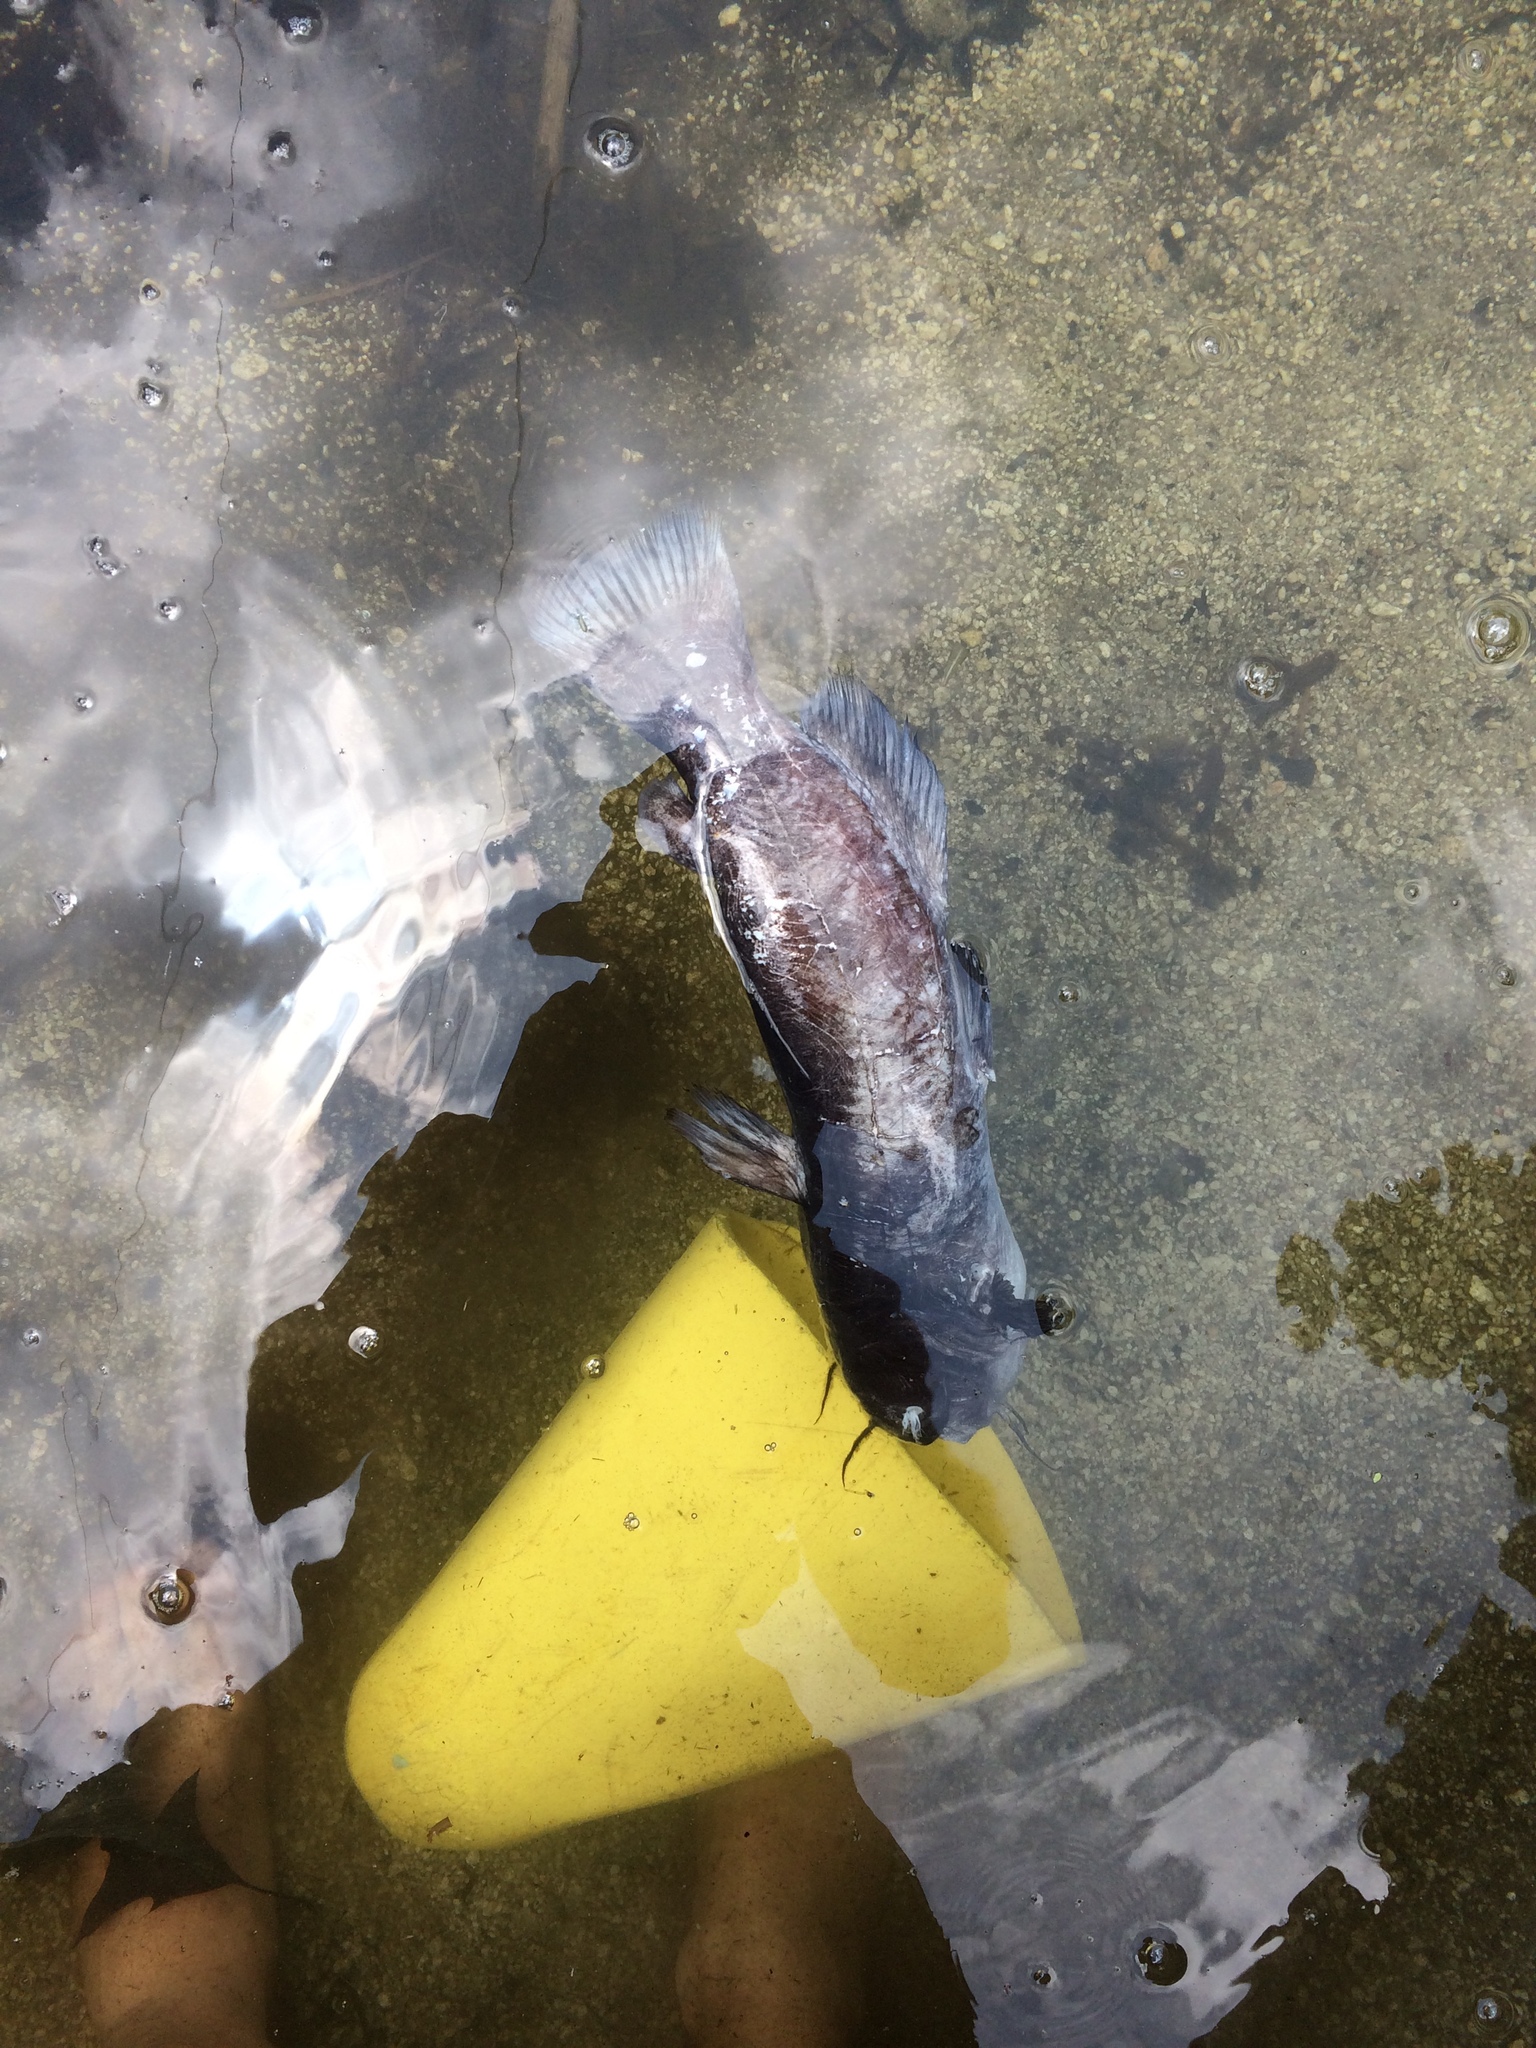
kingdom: Animalia
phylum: Chordata
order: Siluriformes
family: Ictaluridae
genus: Ameiurus
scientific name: Ameiurus nebulosus
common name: Brown bullhead
